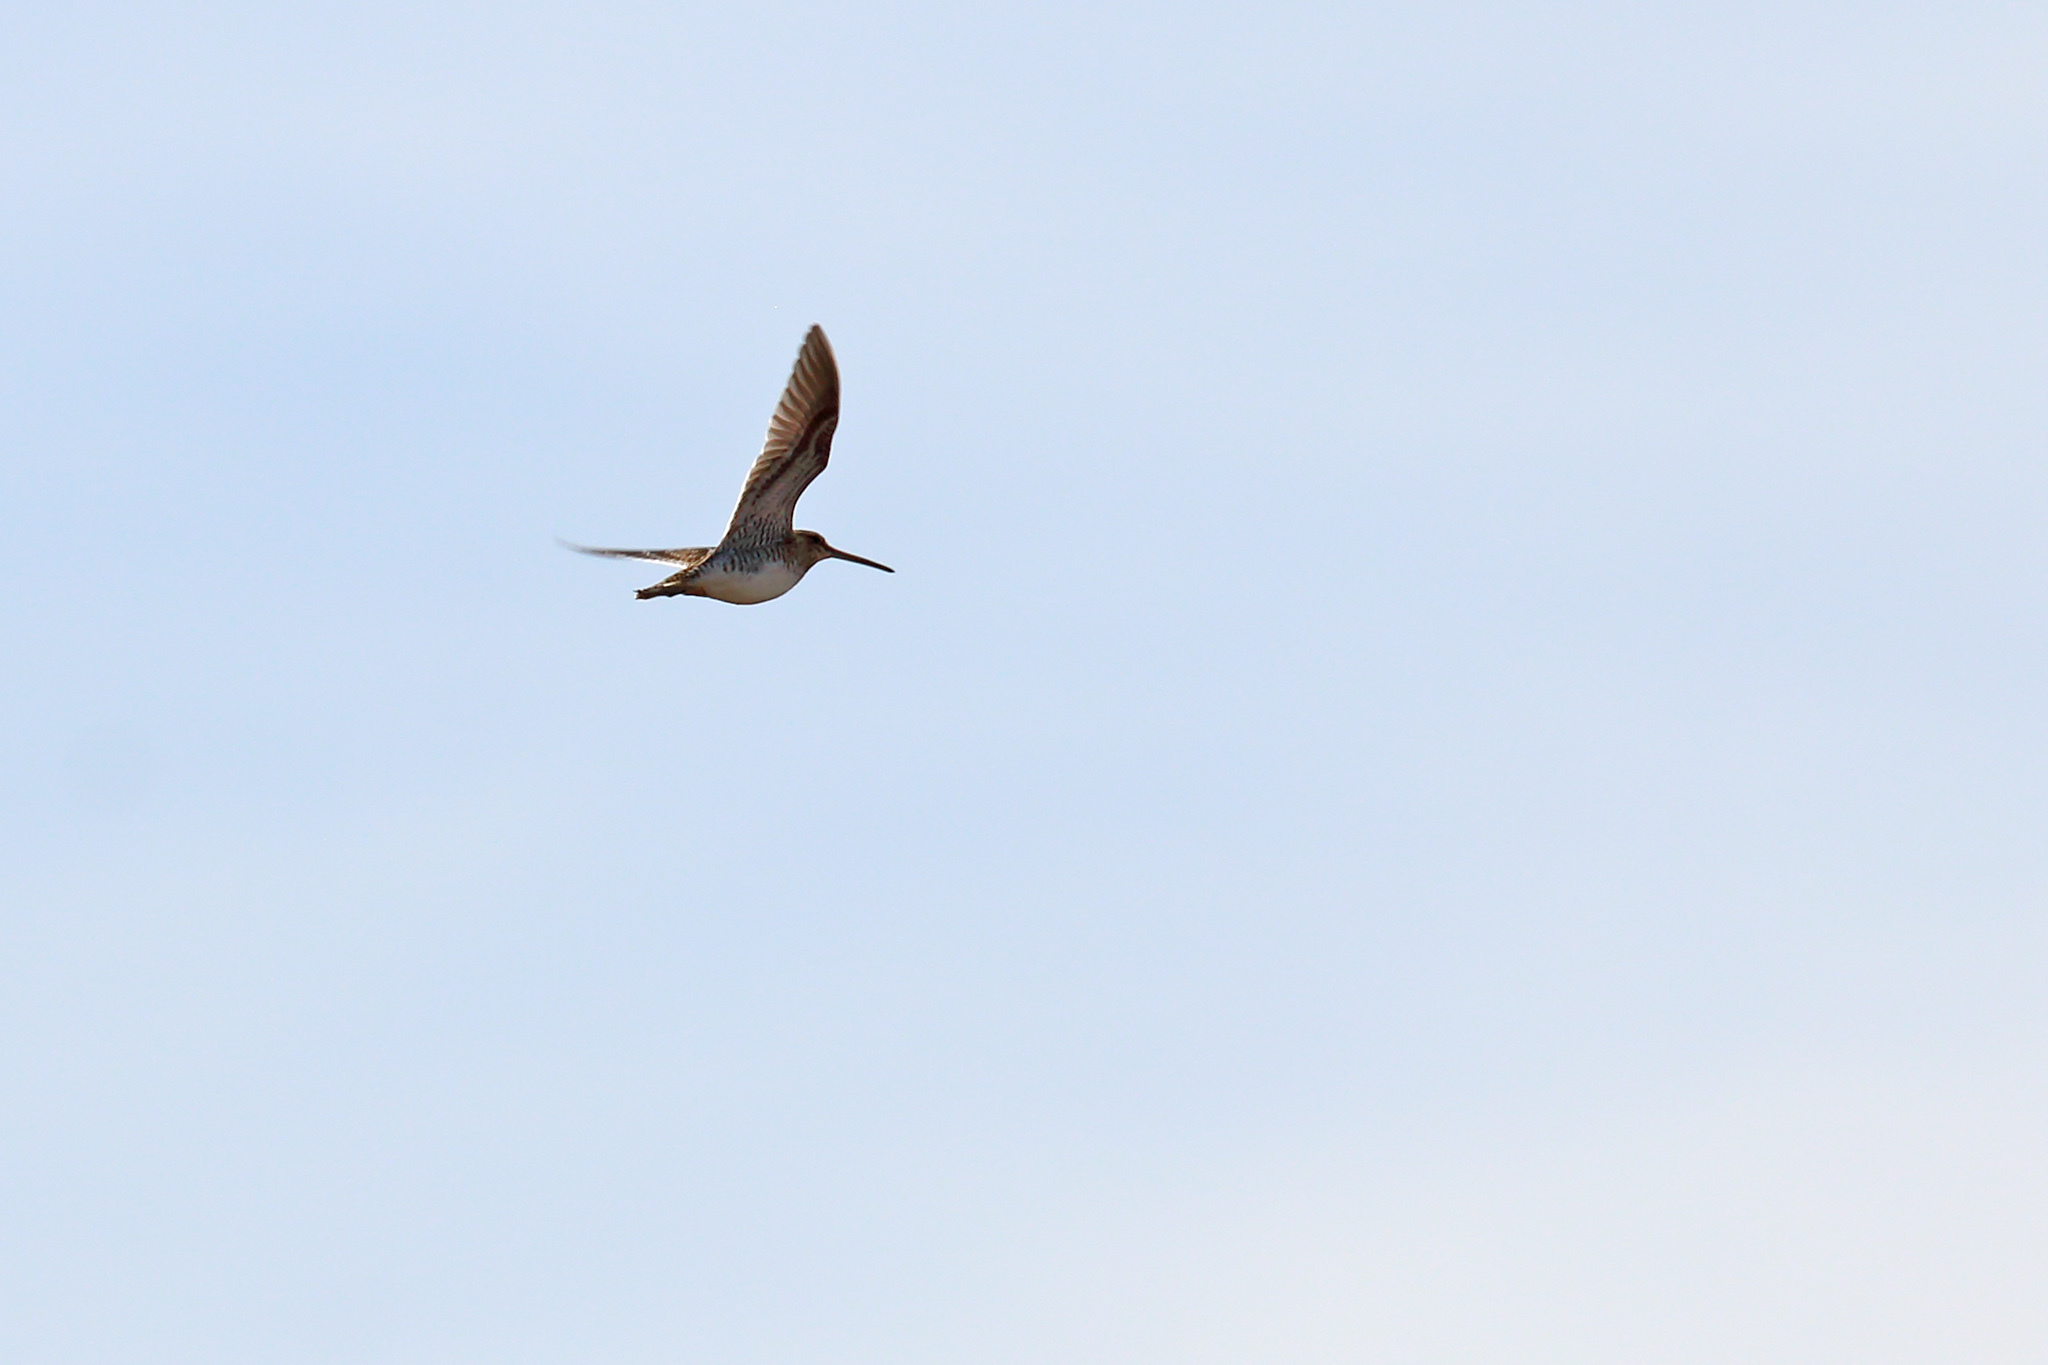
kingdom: Animalia
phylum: Chordata
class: Aves
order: Charadriiformes
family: Scolopacidae
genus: Gallinago
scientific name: Gallinago gallinago
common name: Common snipe
